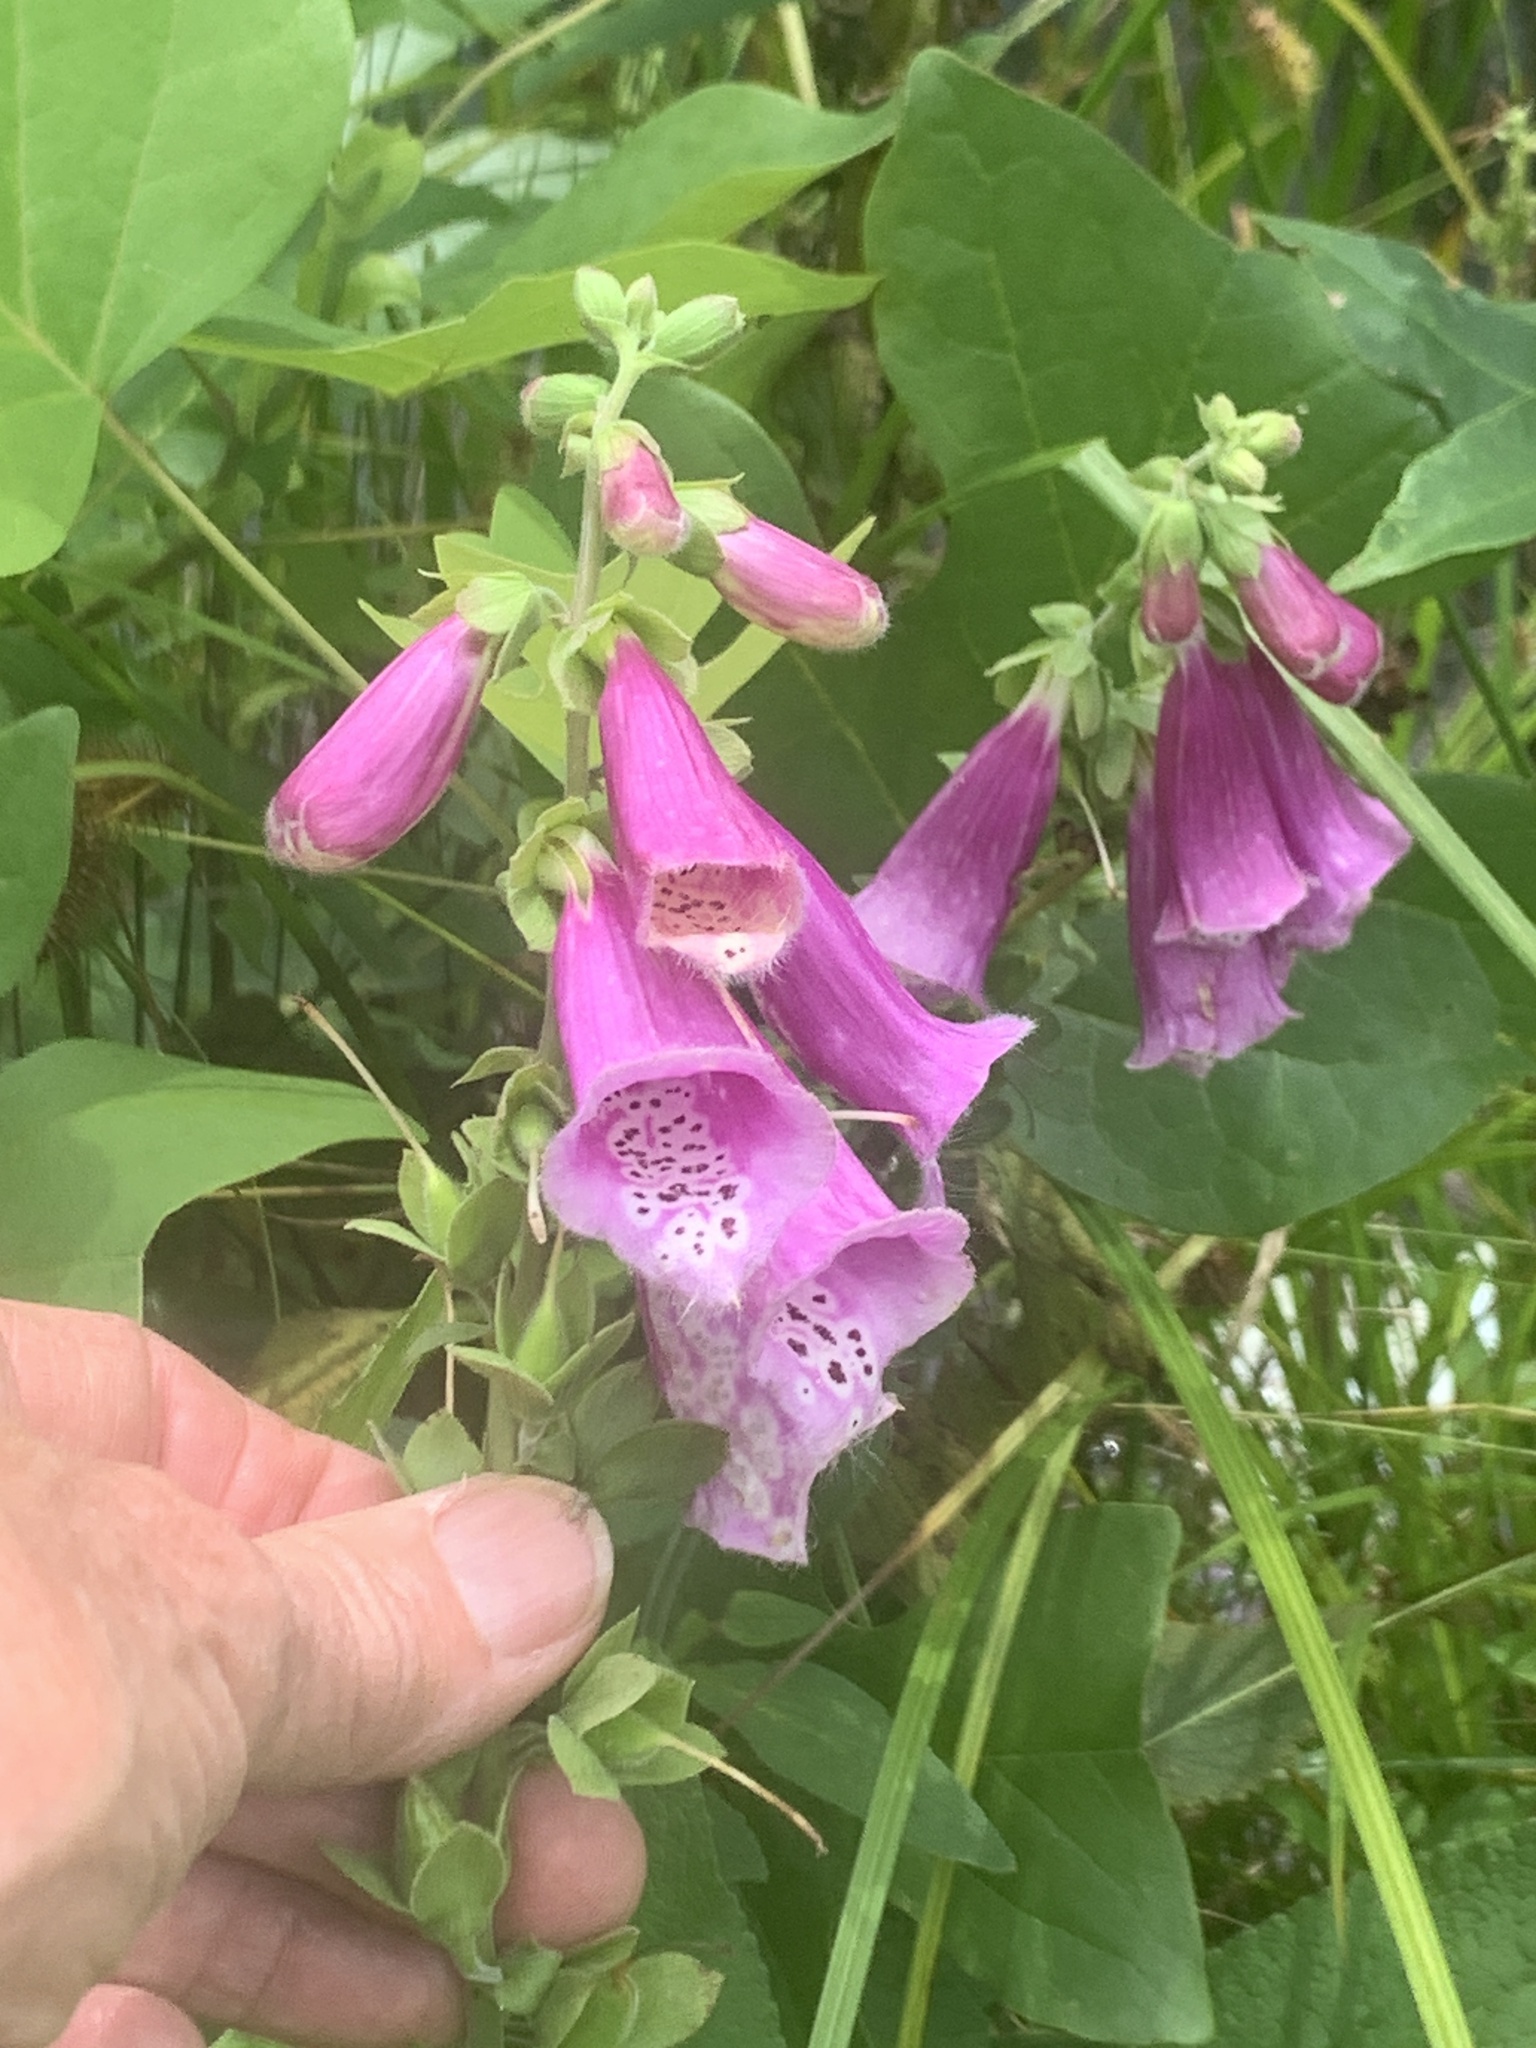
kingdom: Plantae
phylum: Tracheophyta
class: Magnoliopsida
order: Lamiales
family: Plantaginaceae
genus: Digitalis
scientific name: Digitalis purpurea
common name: Foxglove
